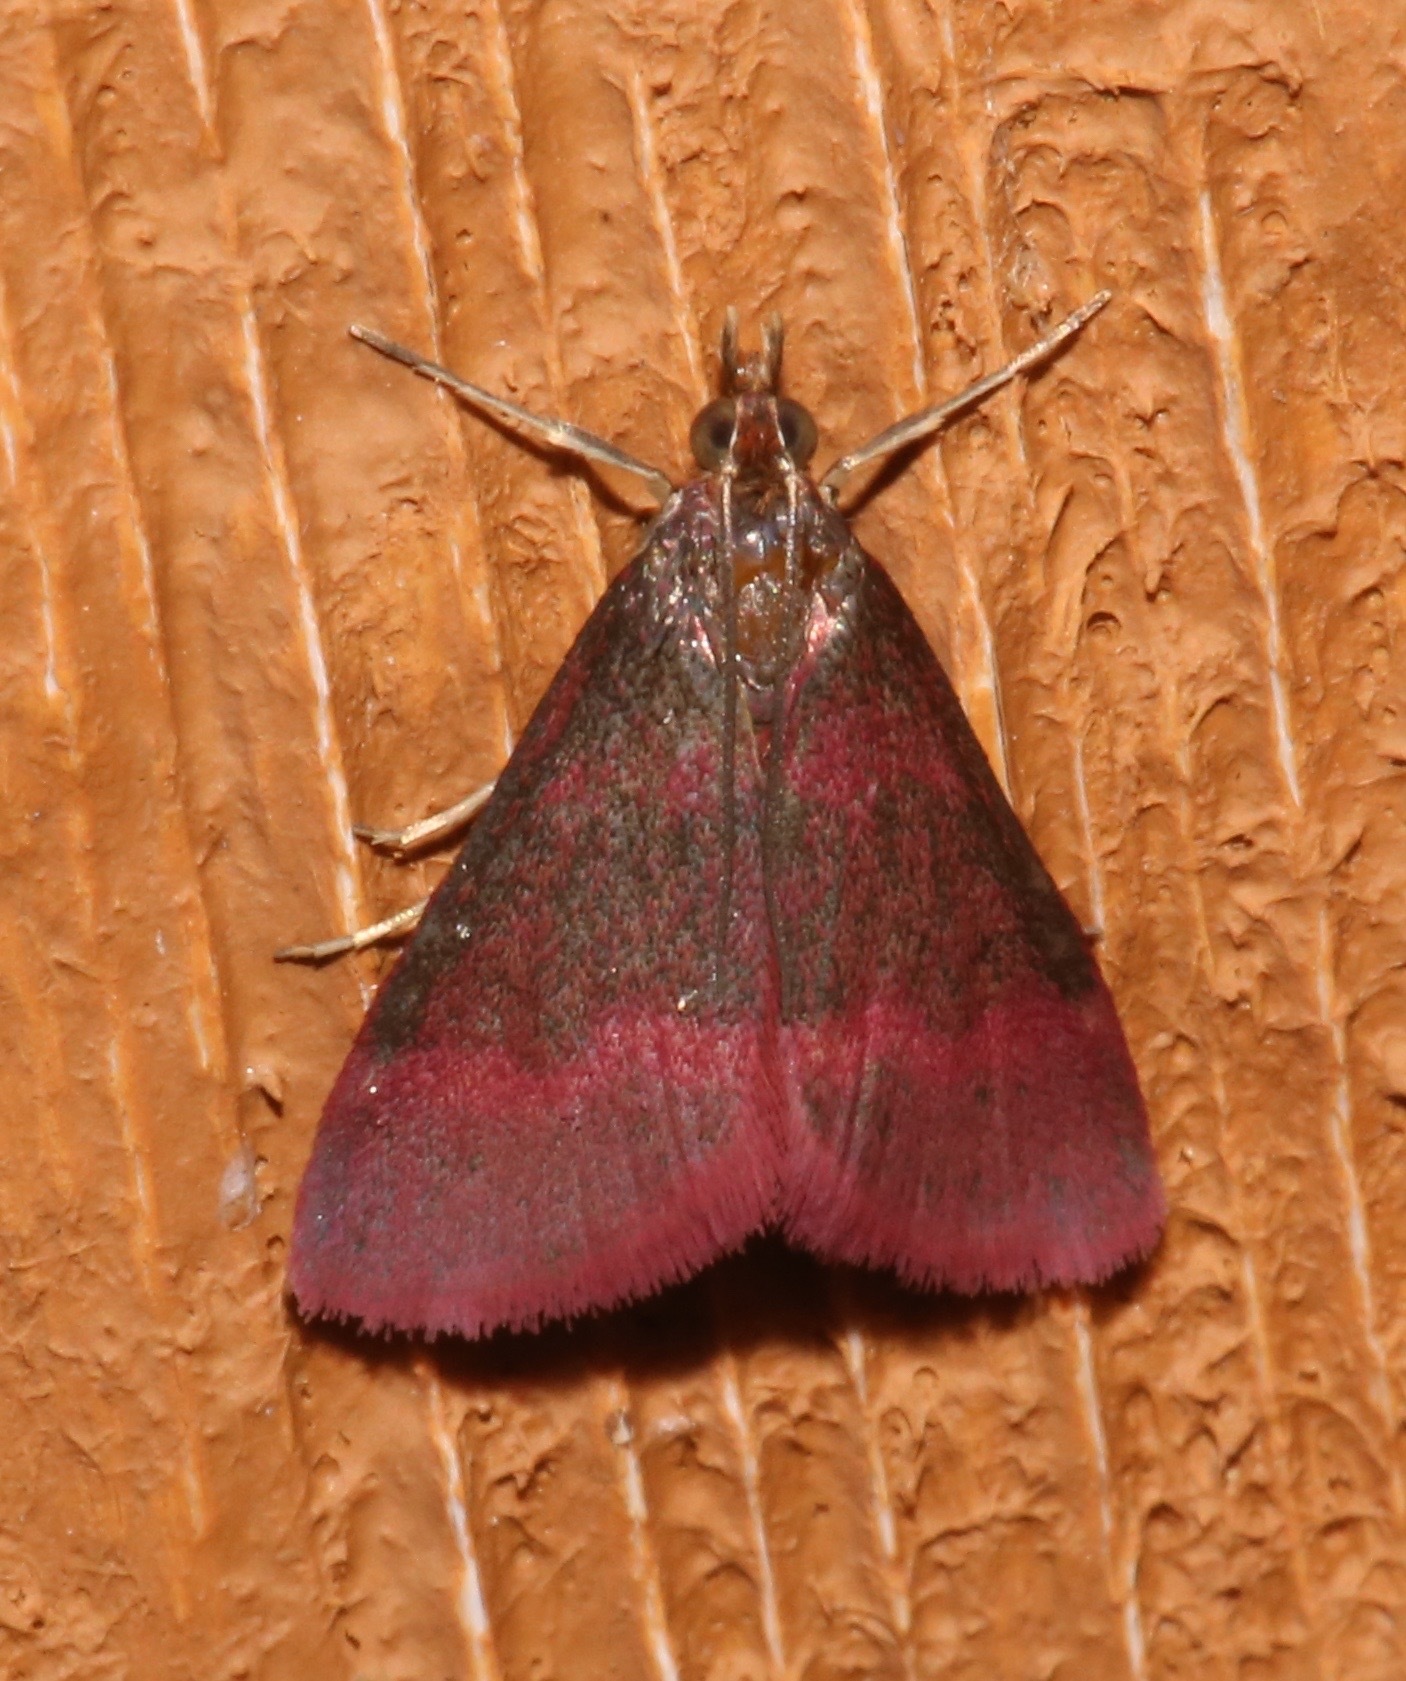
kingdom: Animalia
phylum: Arthropoda
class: Insecta
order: Lepidoptera
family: Crambidae
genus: Pyrausta
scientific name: Pyrausta tyralis
